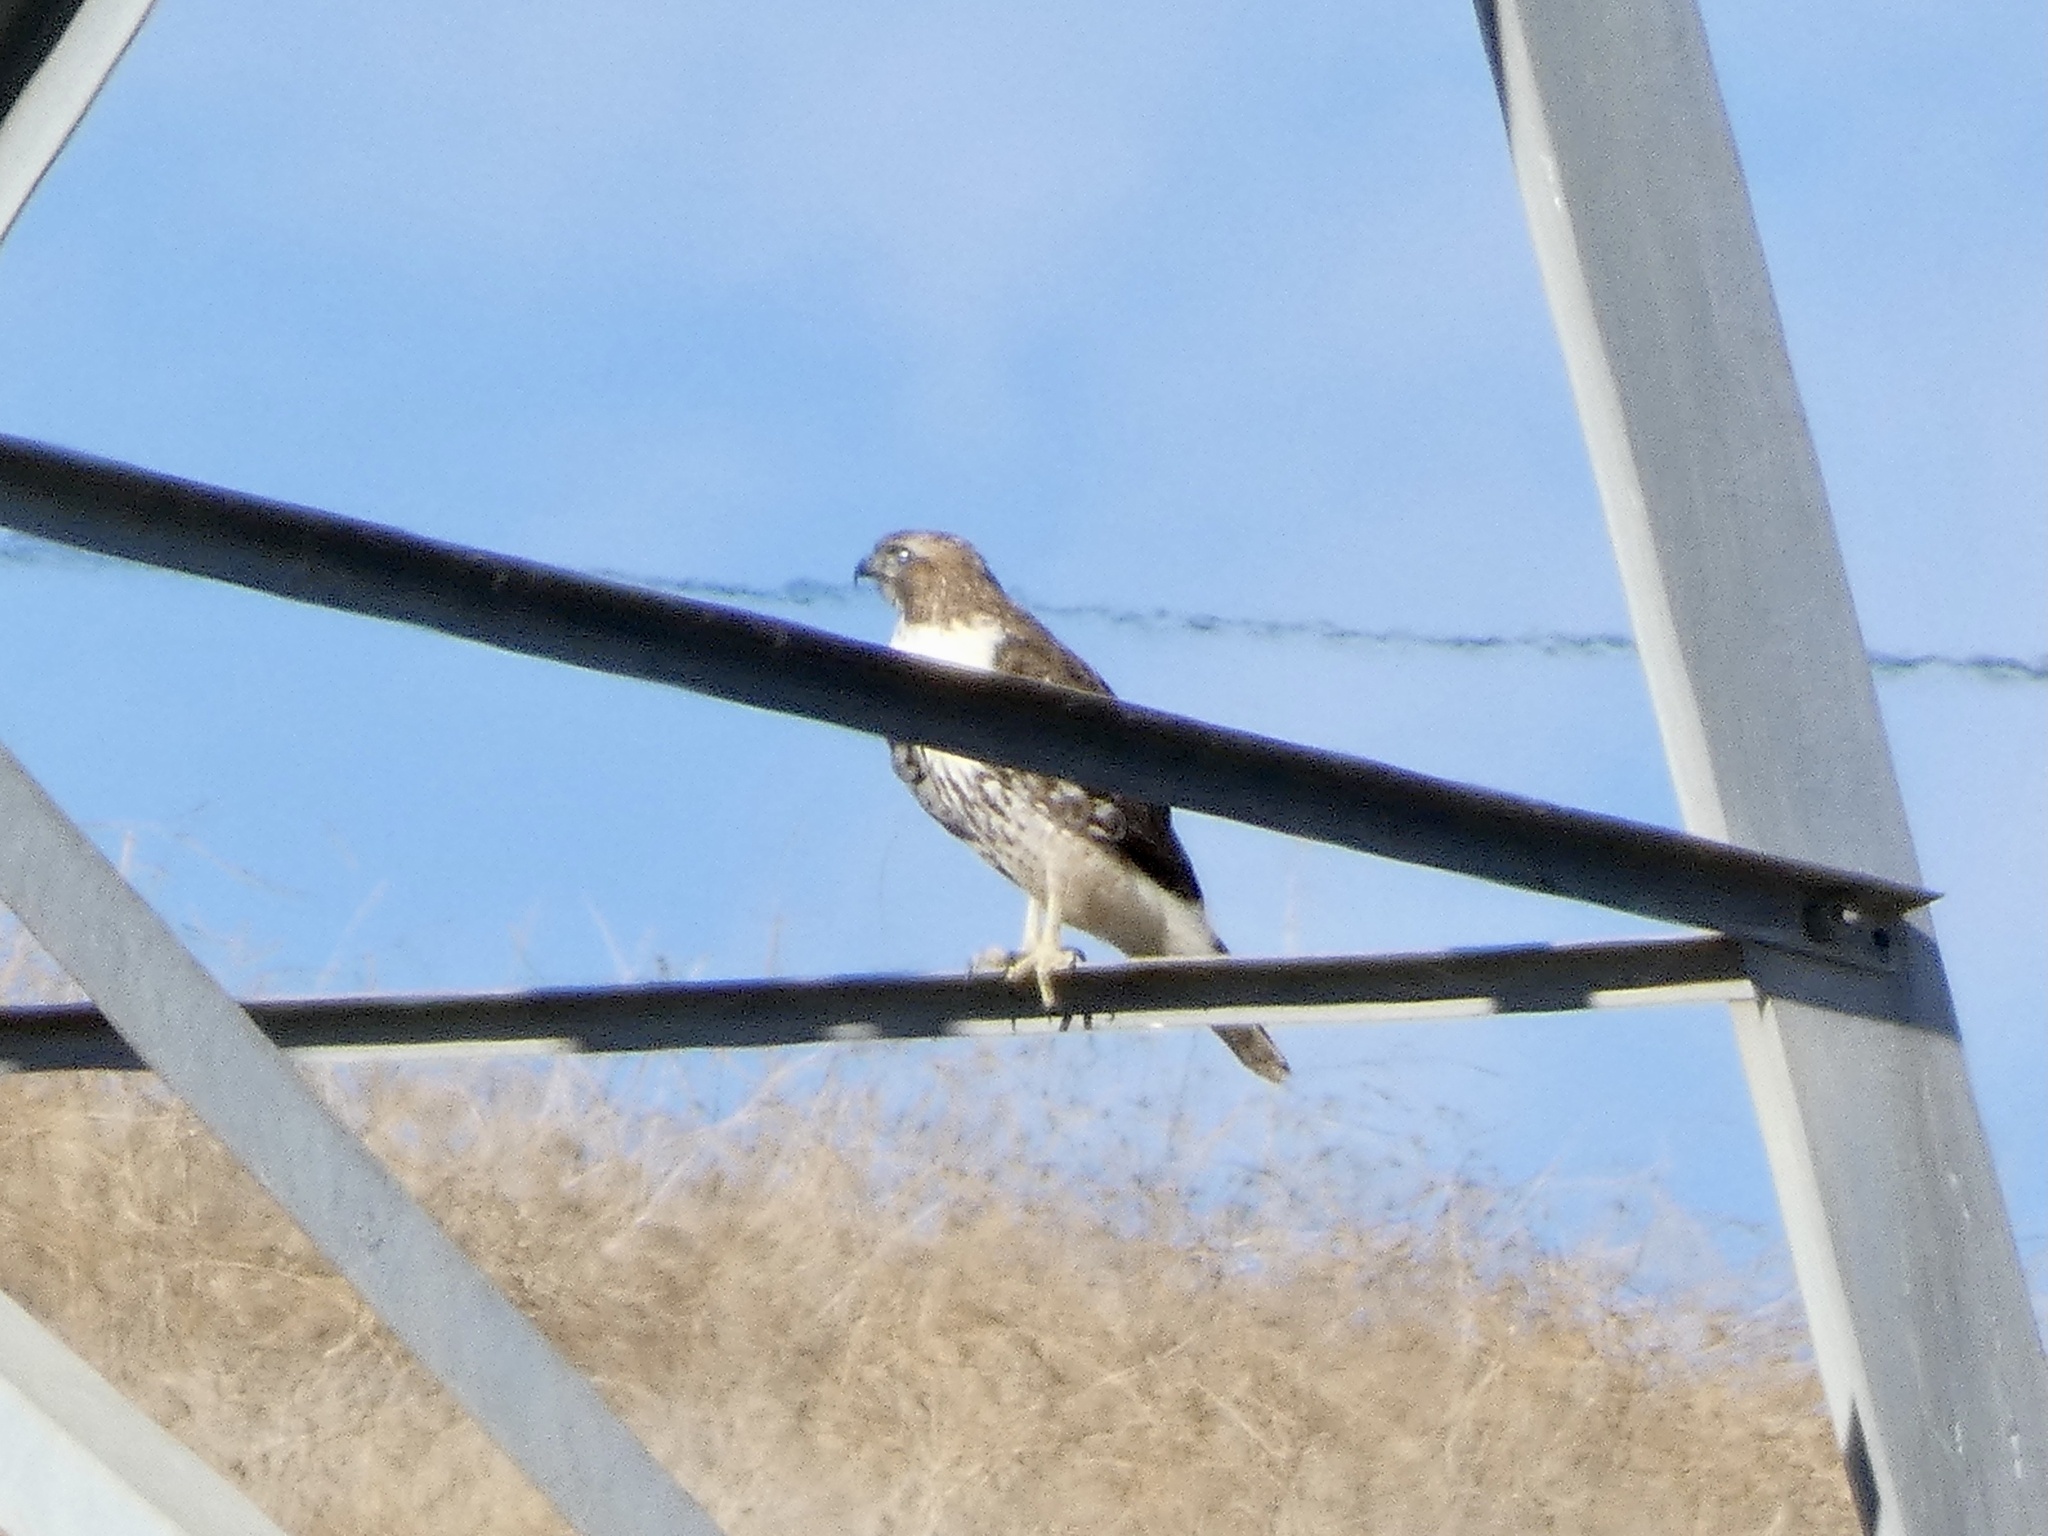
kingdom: Animalia
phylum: Chordata
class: Aves
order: Accipitriformes
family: Accipitridae
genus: Buteo
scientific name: Buteo jamaicensis
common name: Red-tailed hawk
